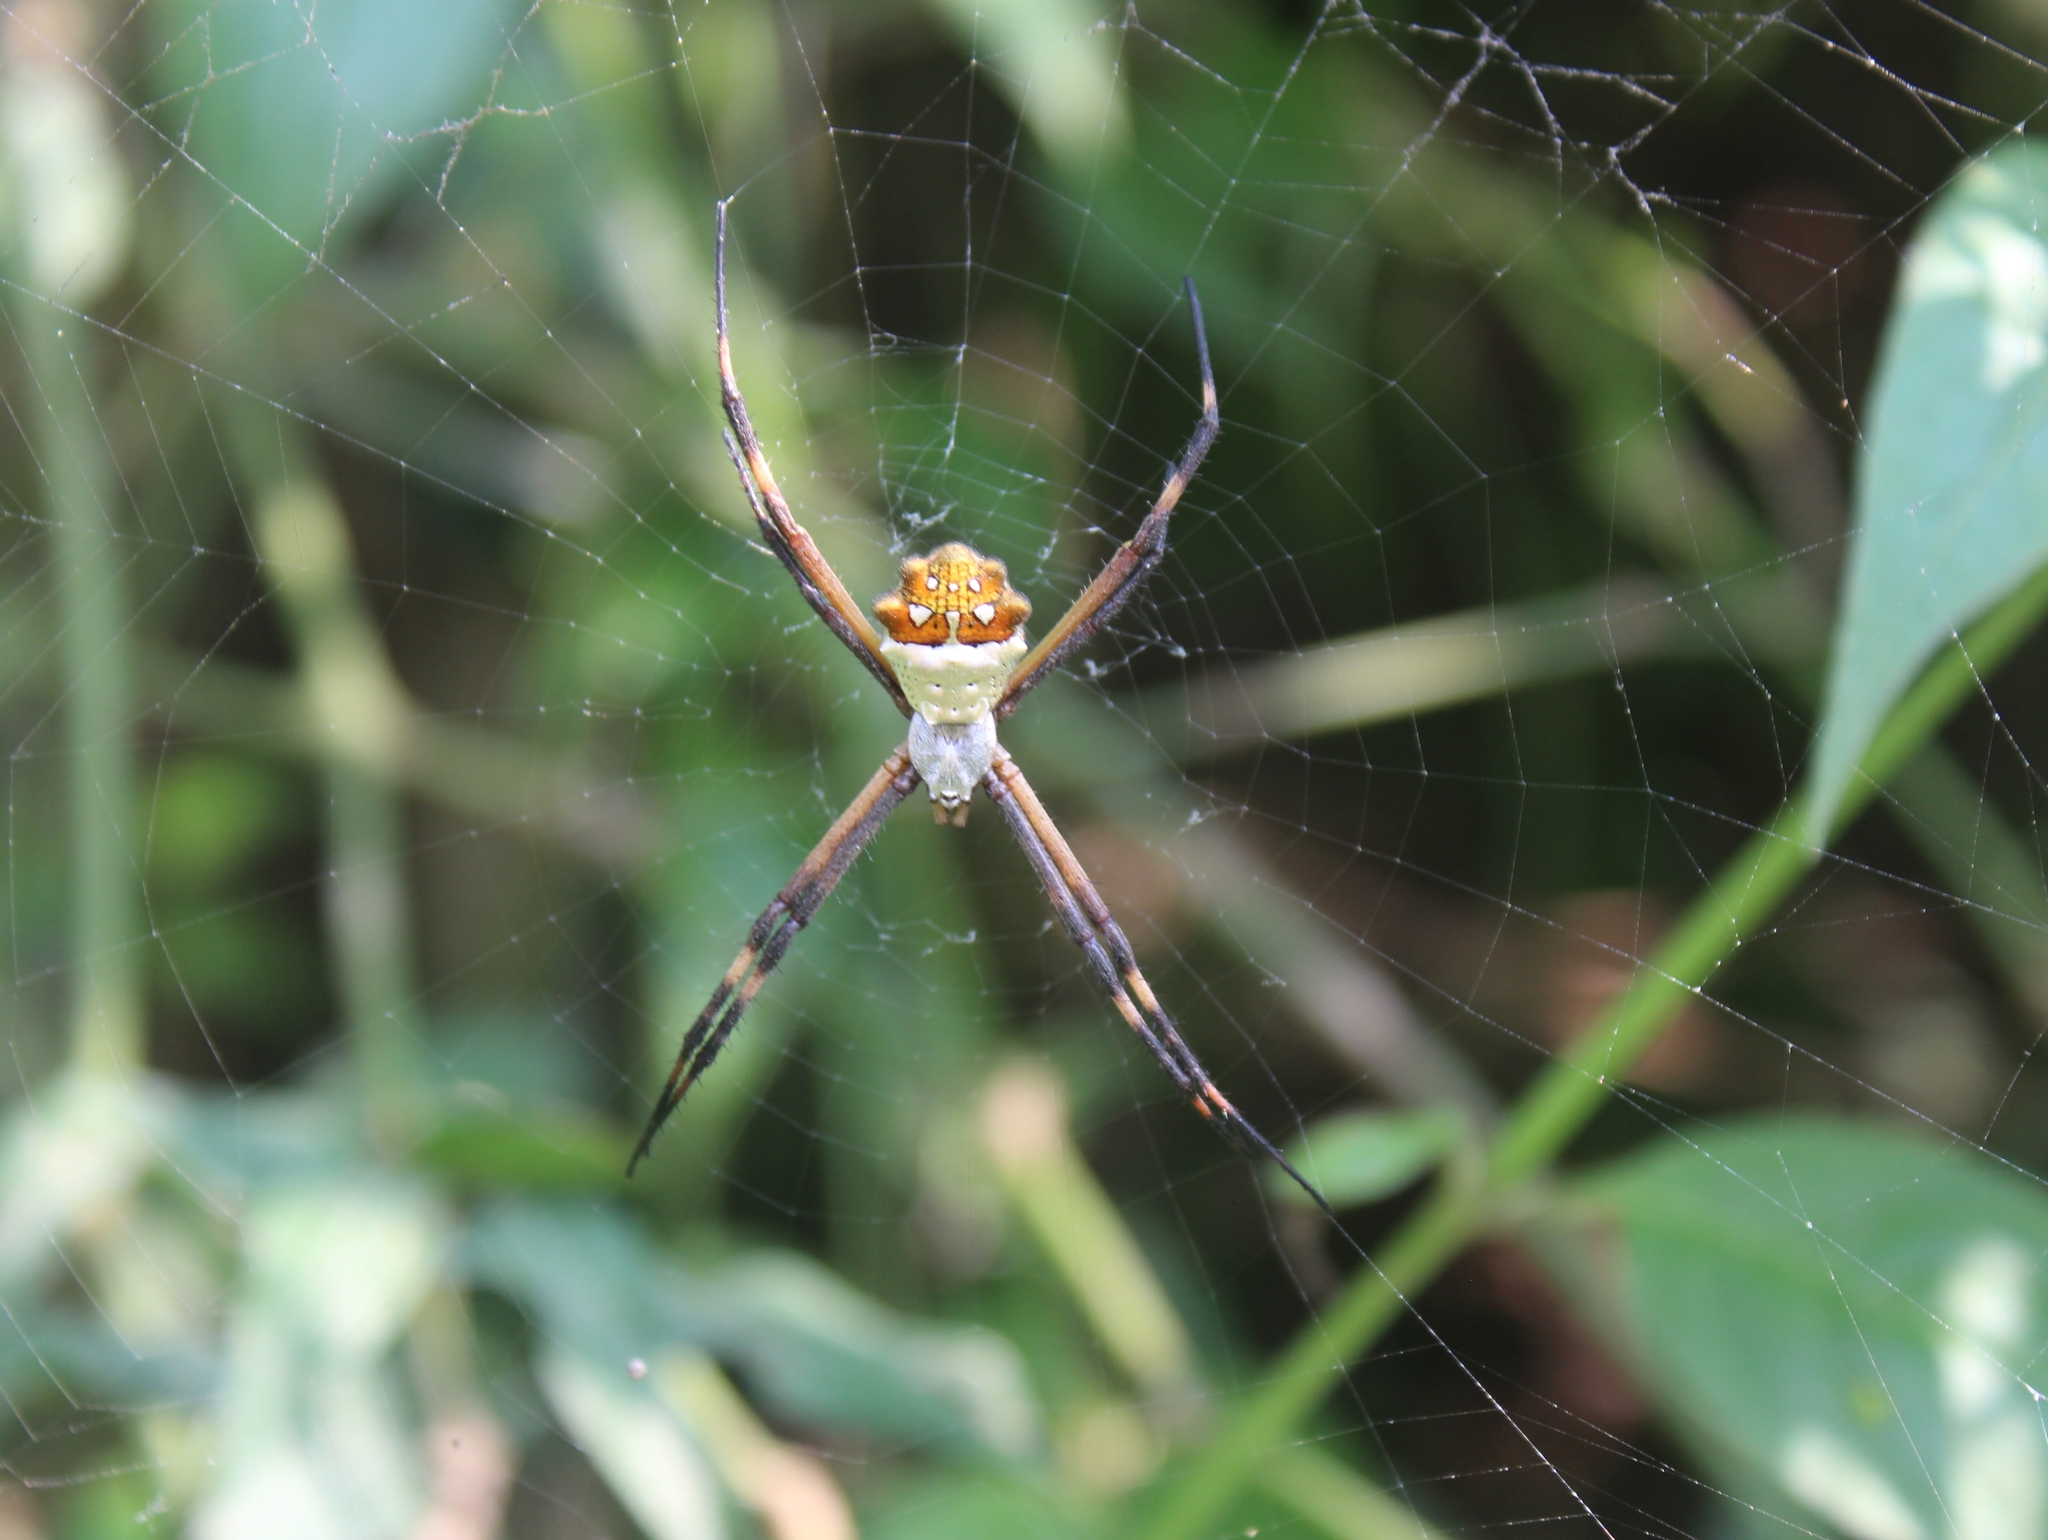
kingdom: Animalia
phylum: Arthropoda
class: Arachnida
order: Araneae
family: Araneidae
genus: Argiope
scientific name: Argiope argentata
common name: Orb weavers
